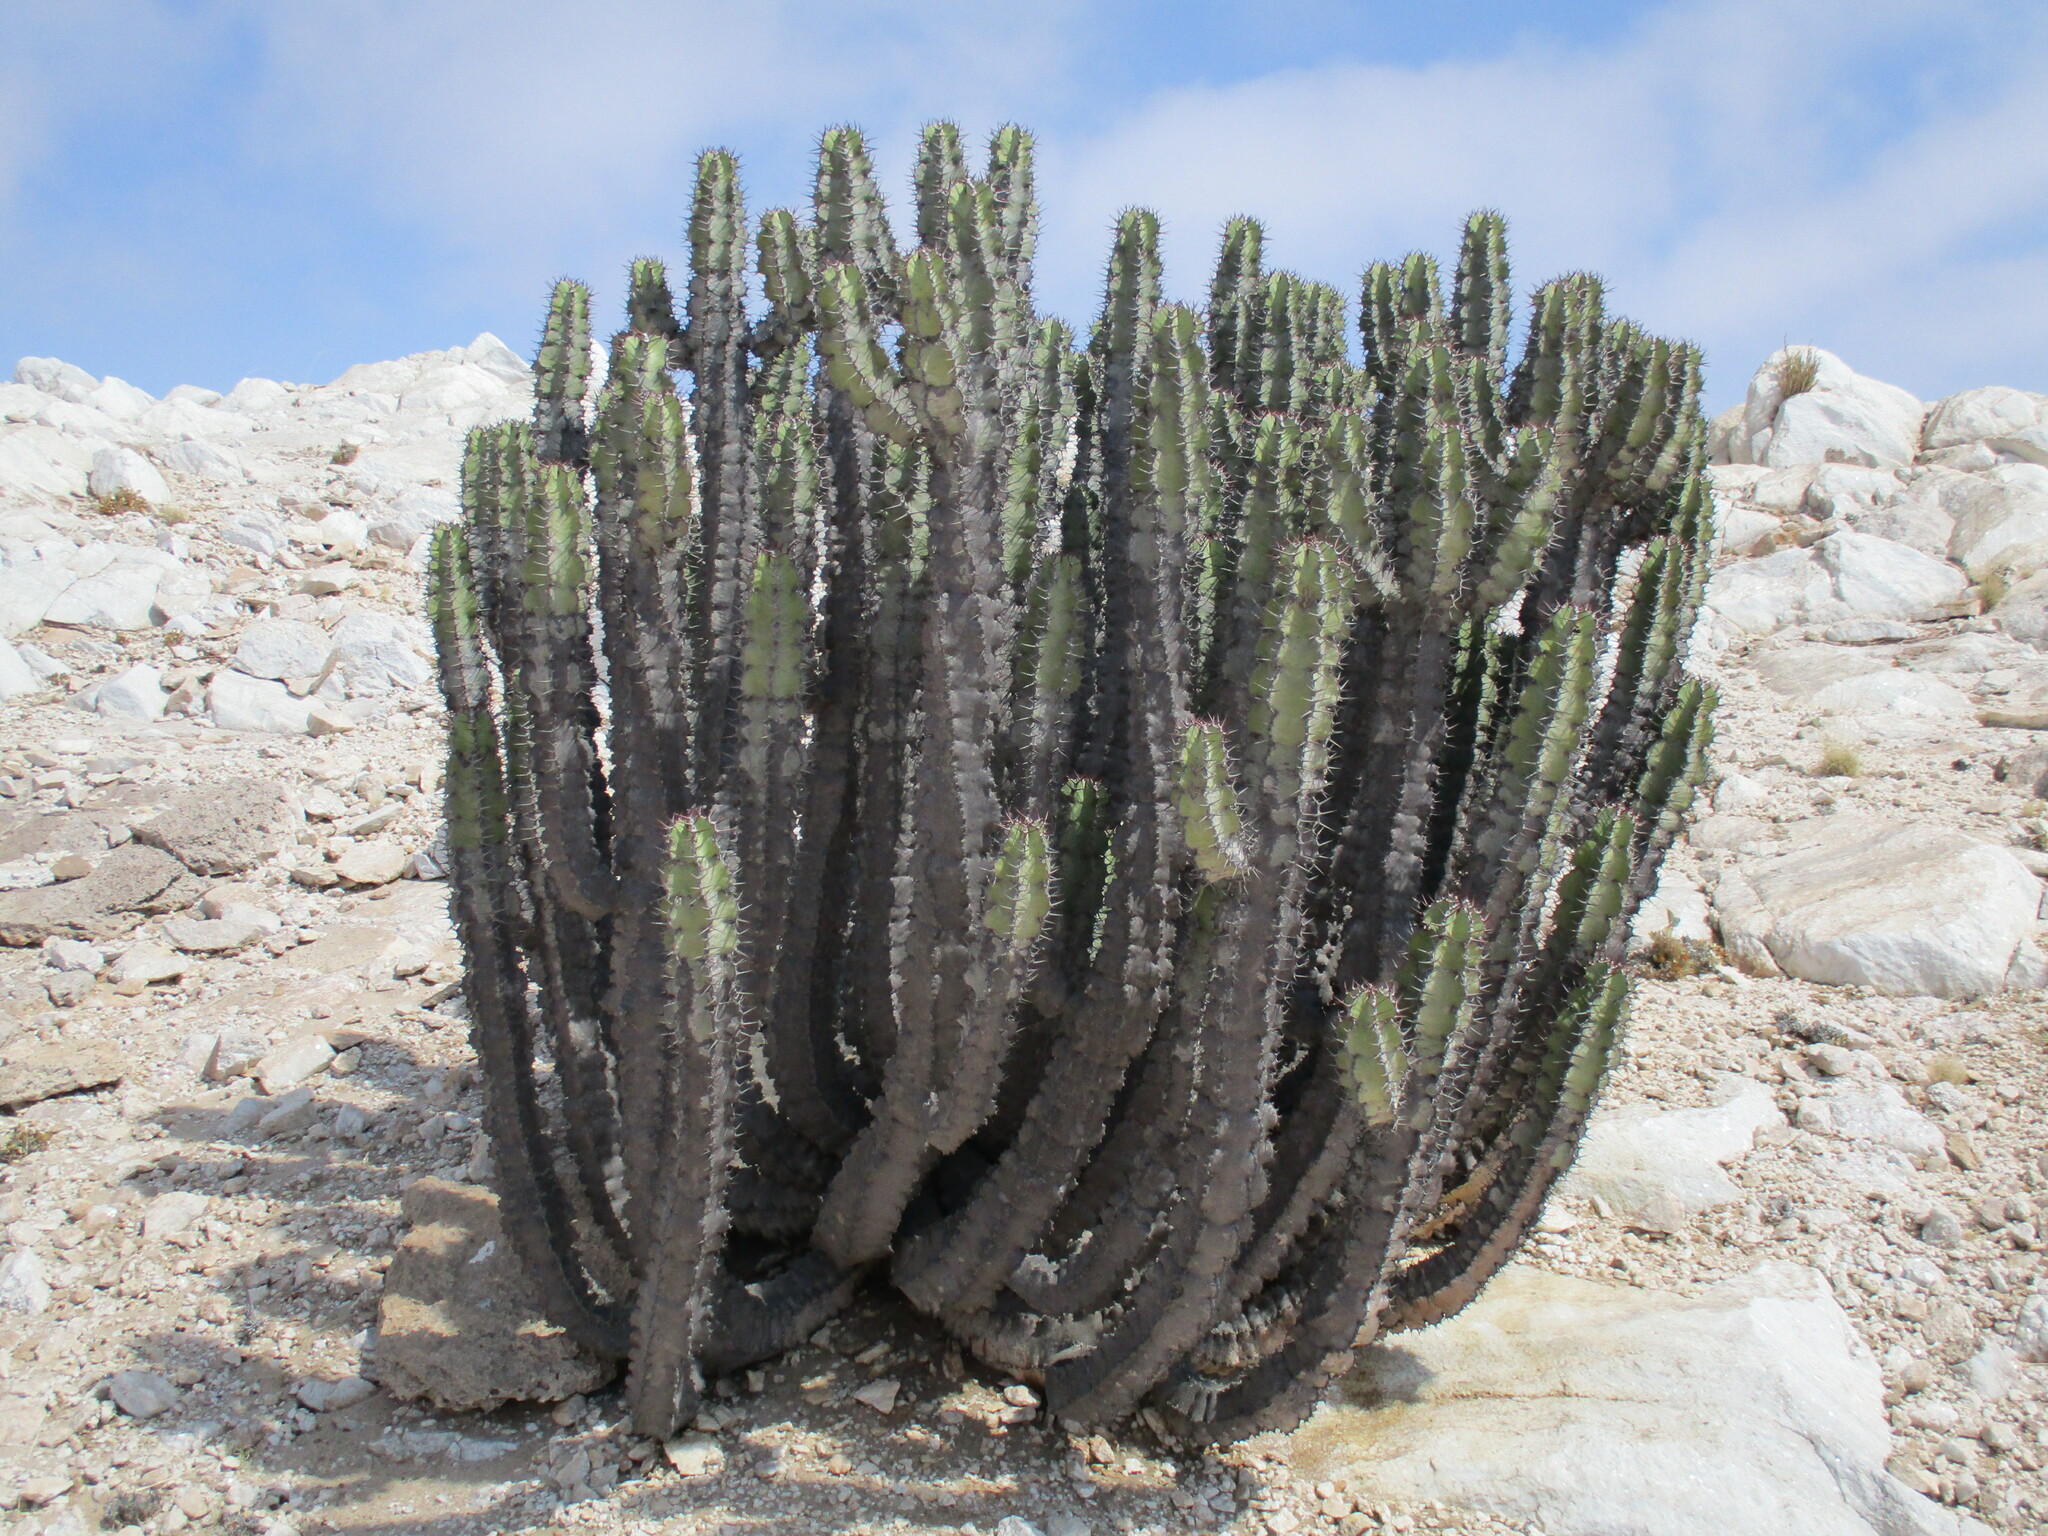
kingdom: Plantae
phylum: Tracheophyta
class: Magnoliopsida
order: Malpighiales
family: Euphorbiaceae
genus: Euphorbia
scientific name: Euphorbia virosa
